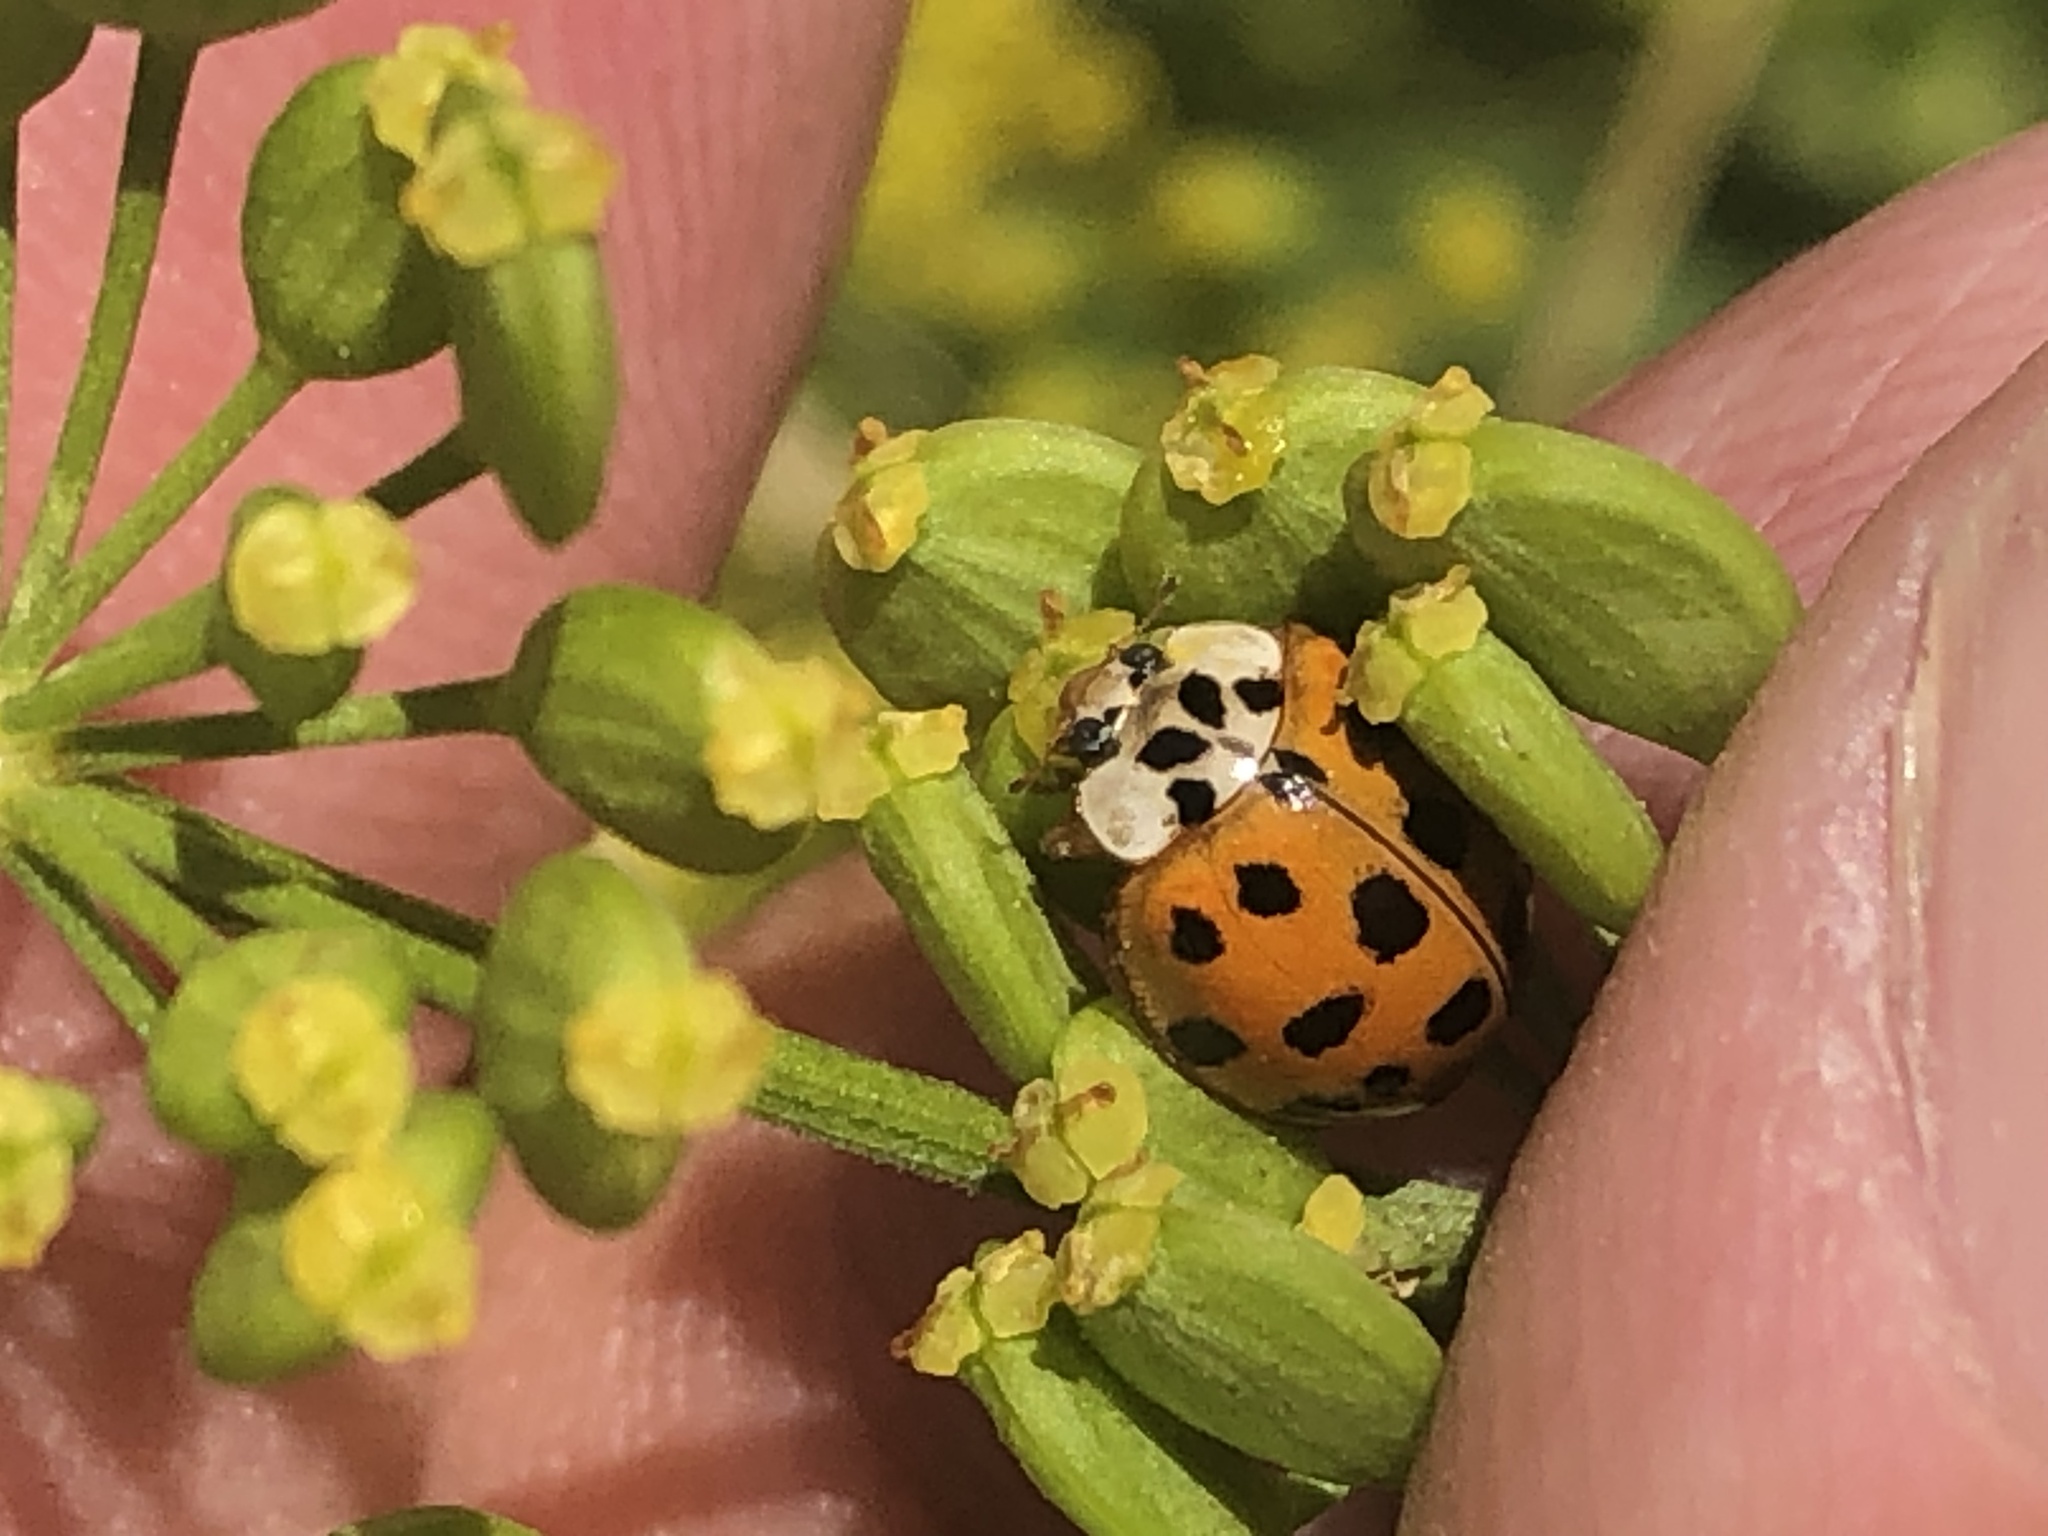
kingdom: Animalia
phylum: Arthropoda
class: Insecta
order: Coleoptera
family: Coccinellidae
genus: Harmonia
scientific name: Harmonia axyridis
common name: Harlequin ladybird
